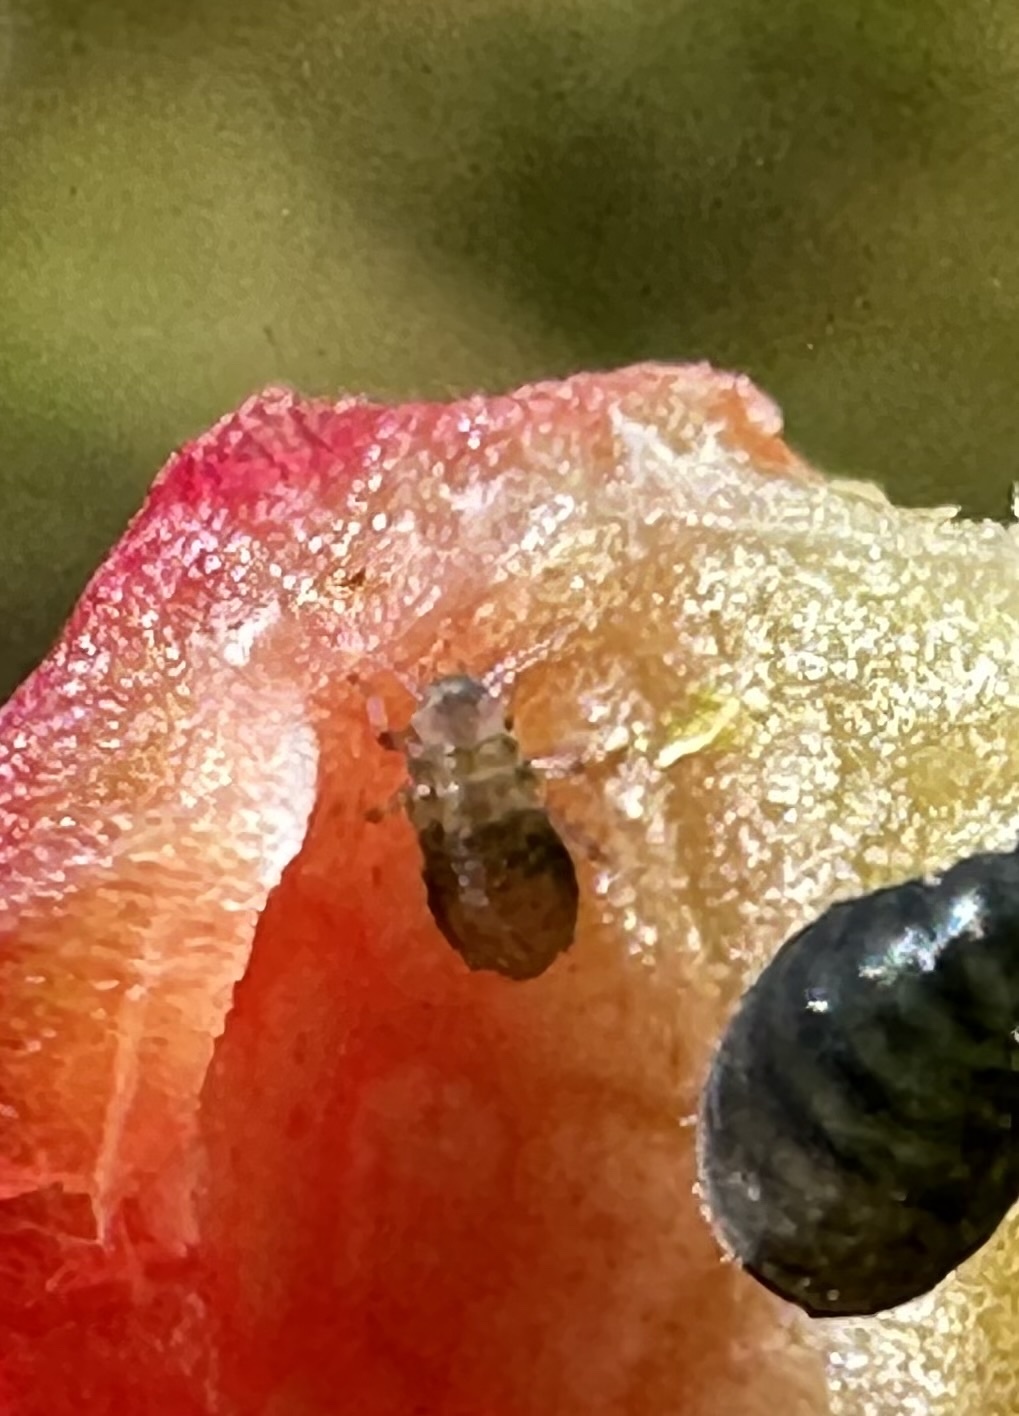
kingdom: Animalia
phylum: Arthropoda
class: Insecta
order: Hemiptera
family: Aphididae
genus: Tamalia
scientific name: Tamalia coweni
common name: Manzanita leafgall aphid
